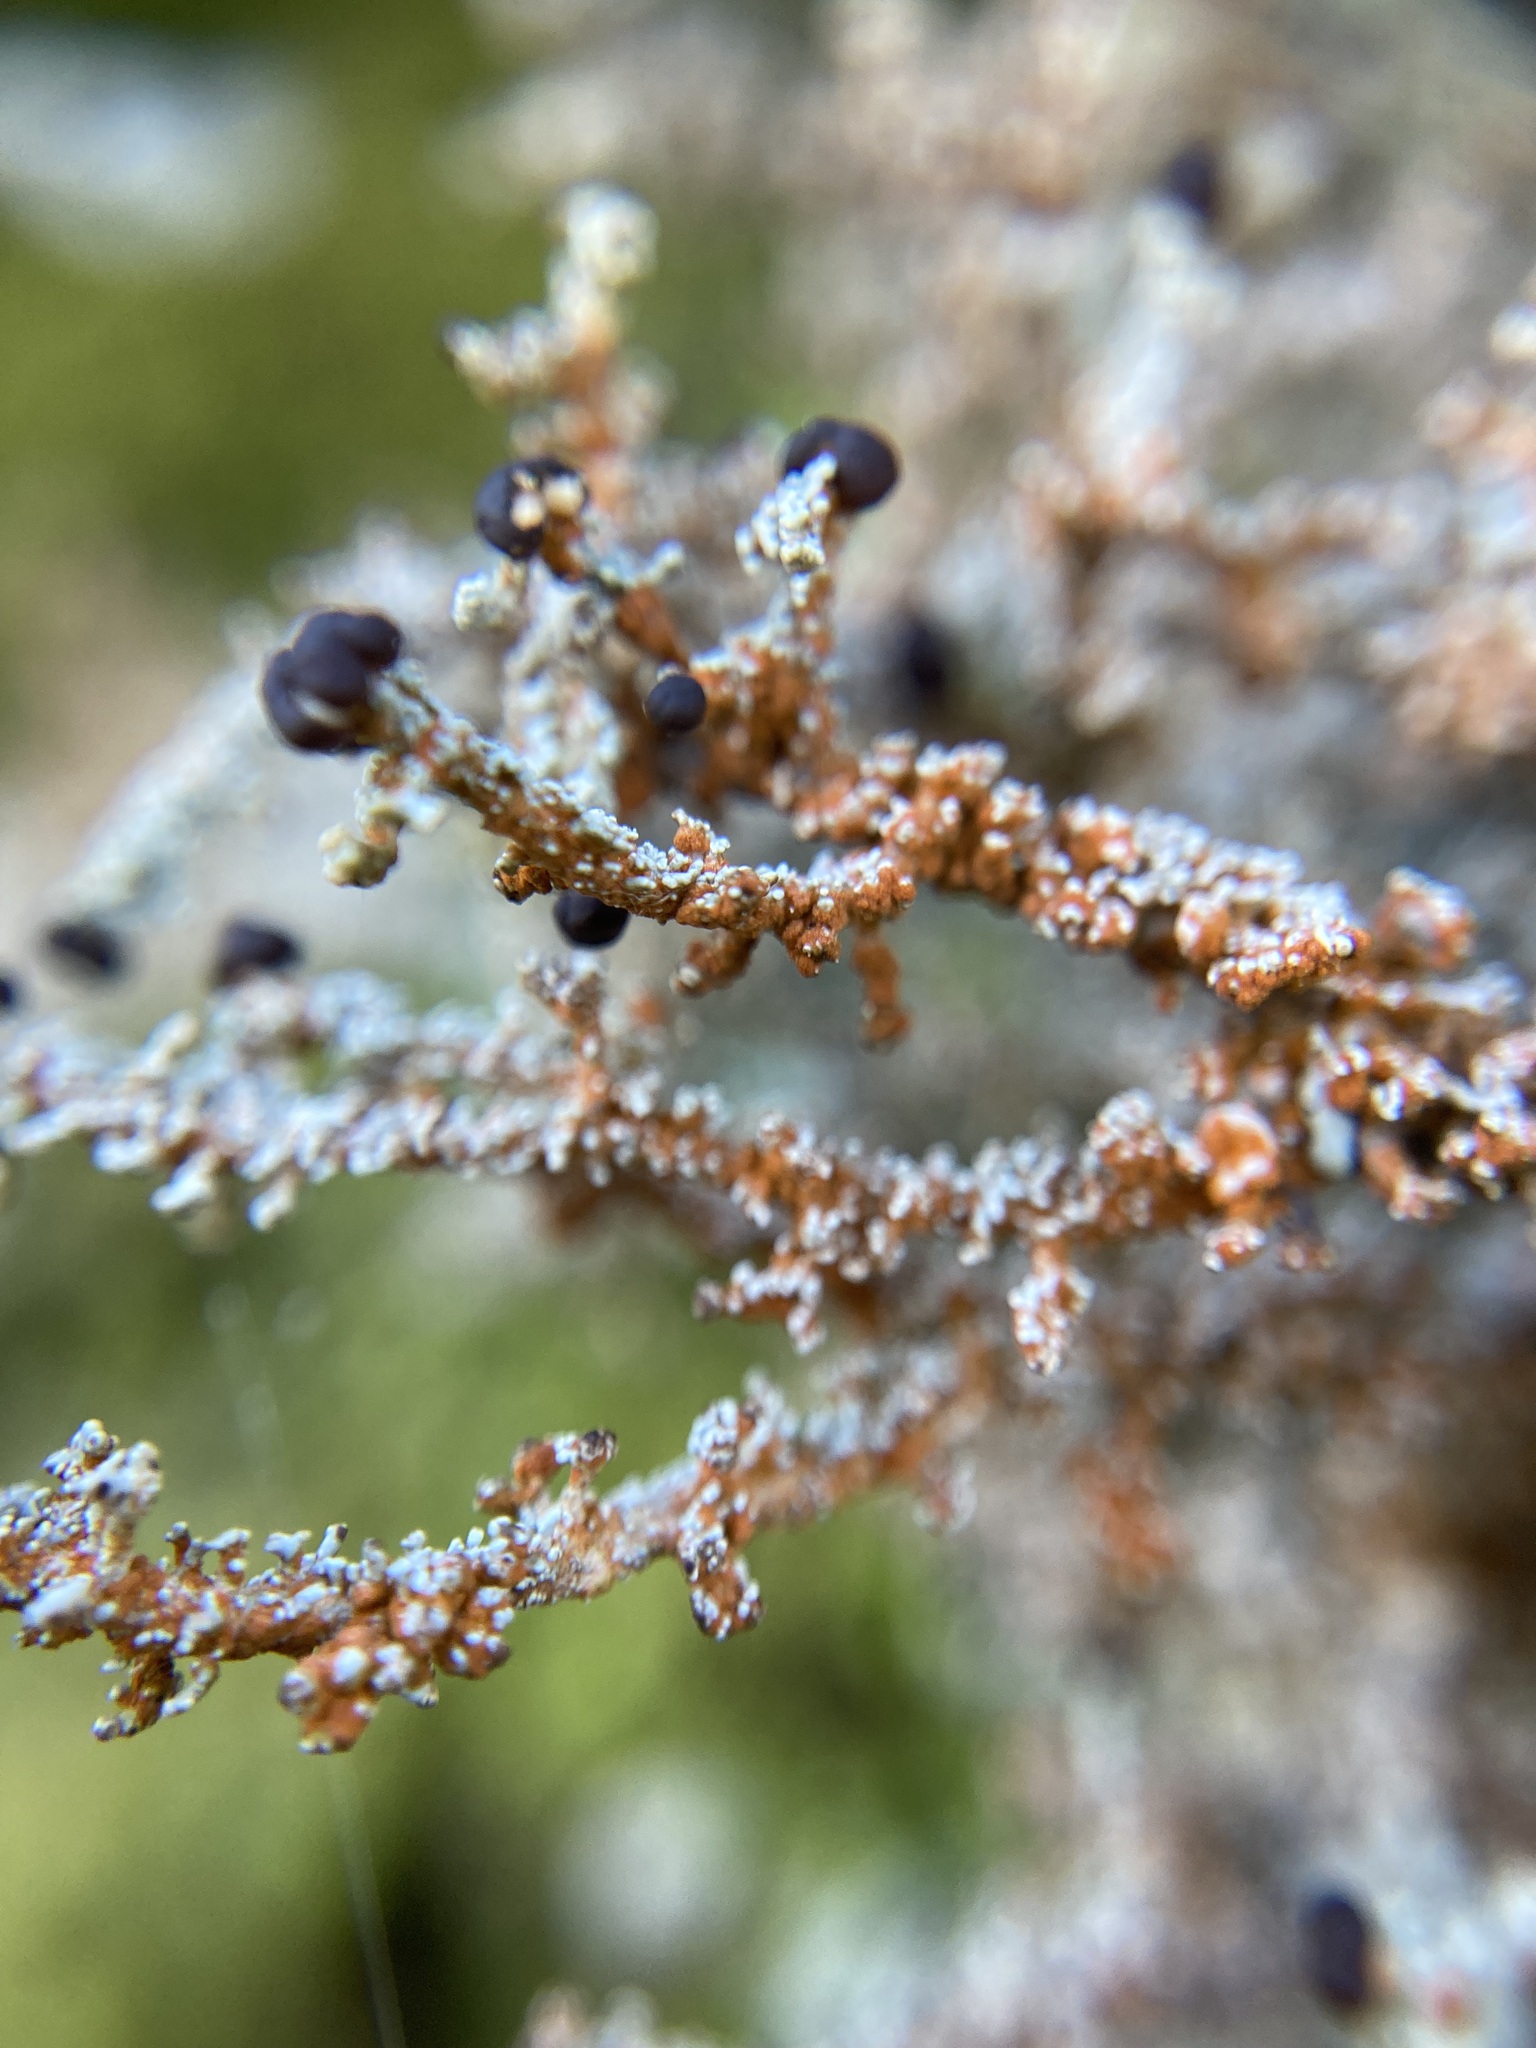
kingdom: Fungi
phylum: Ascomycota
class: Lecanoromycetes
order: Lecanorales
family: Stereocaulaceae
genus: Stereocaulon
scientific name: Stereocaulon ramulosum
